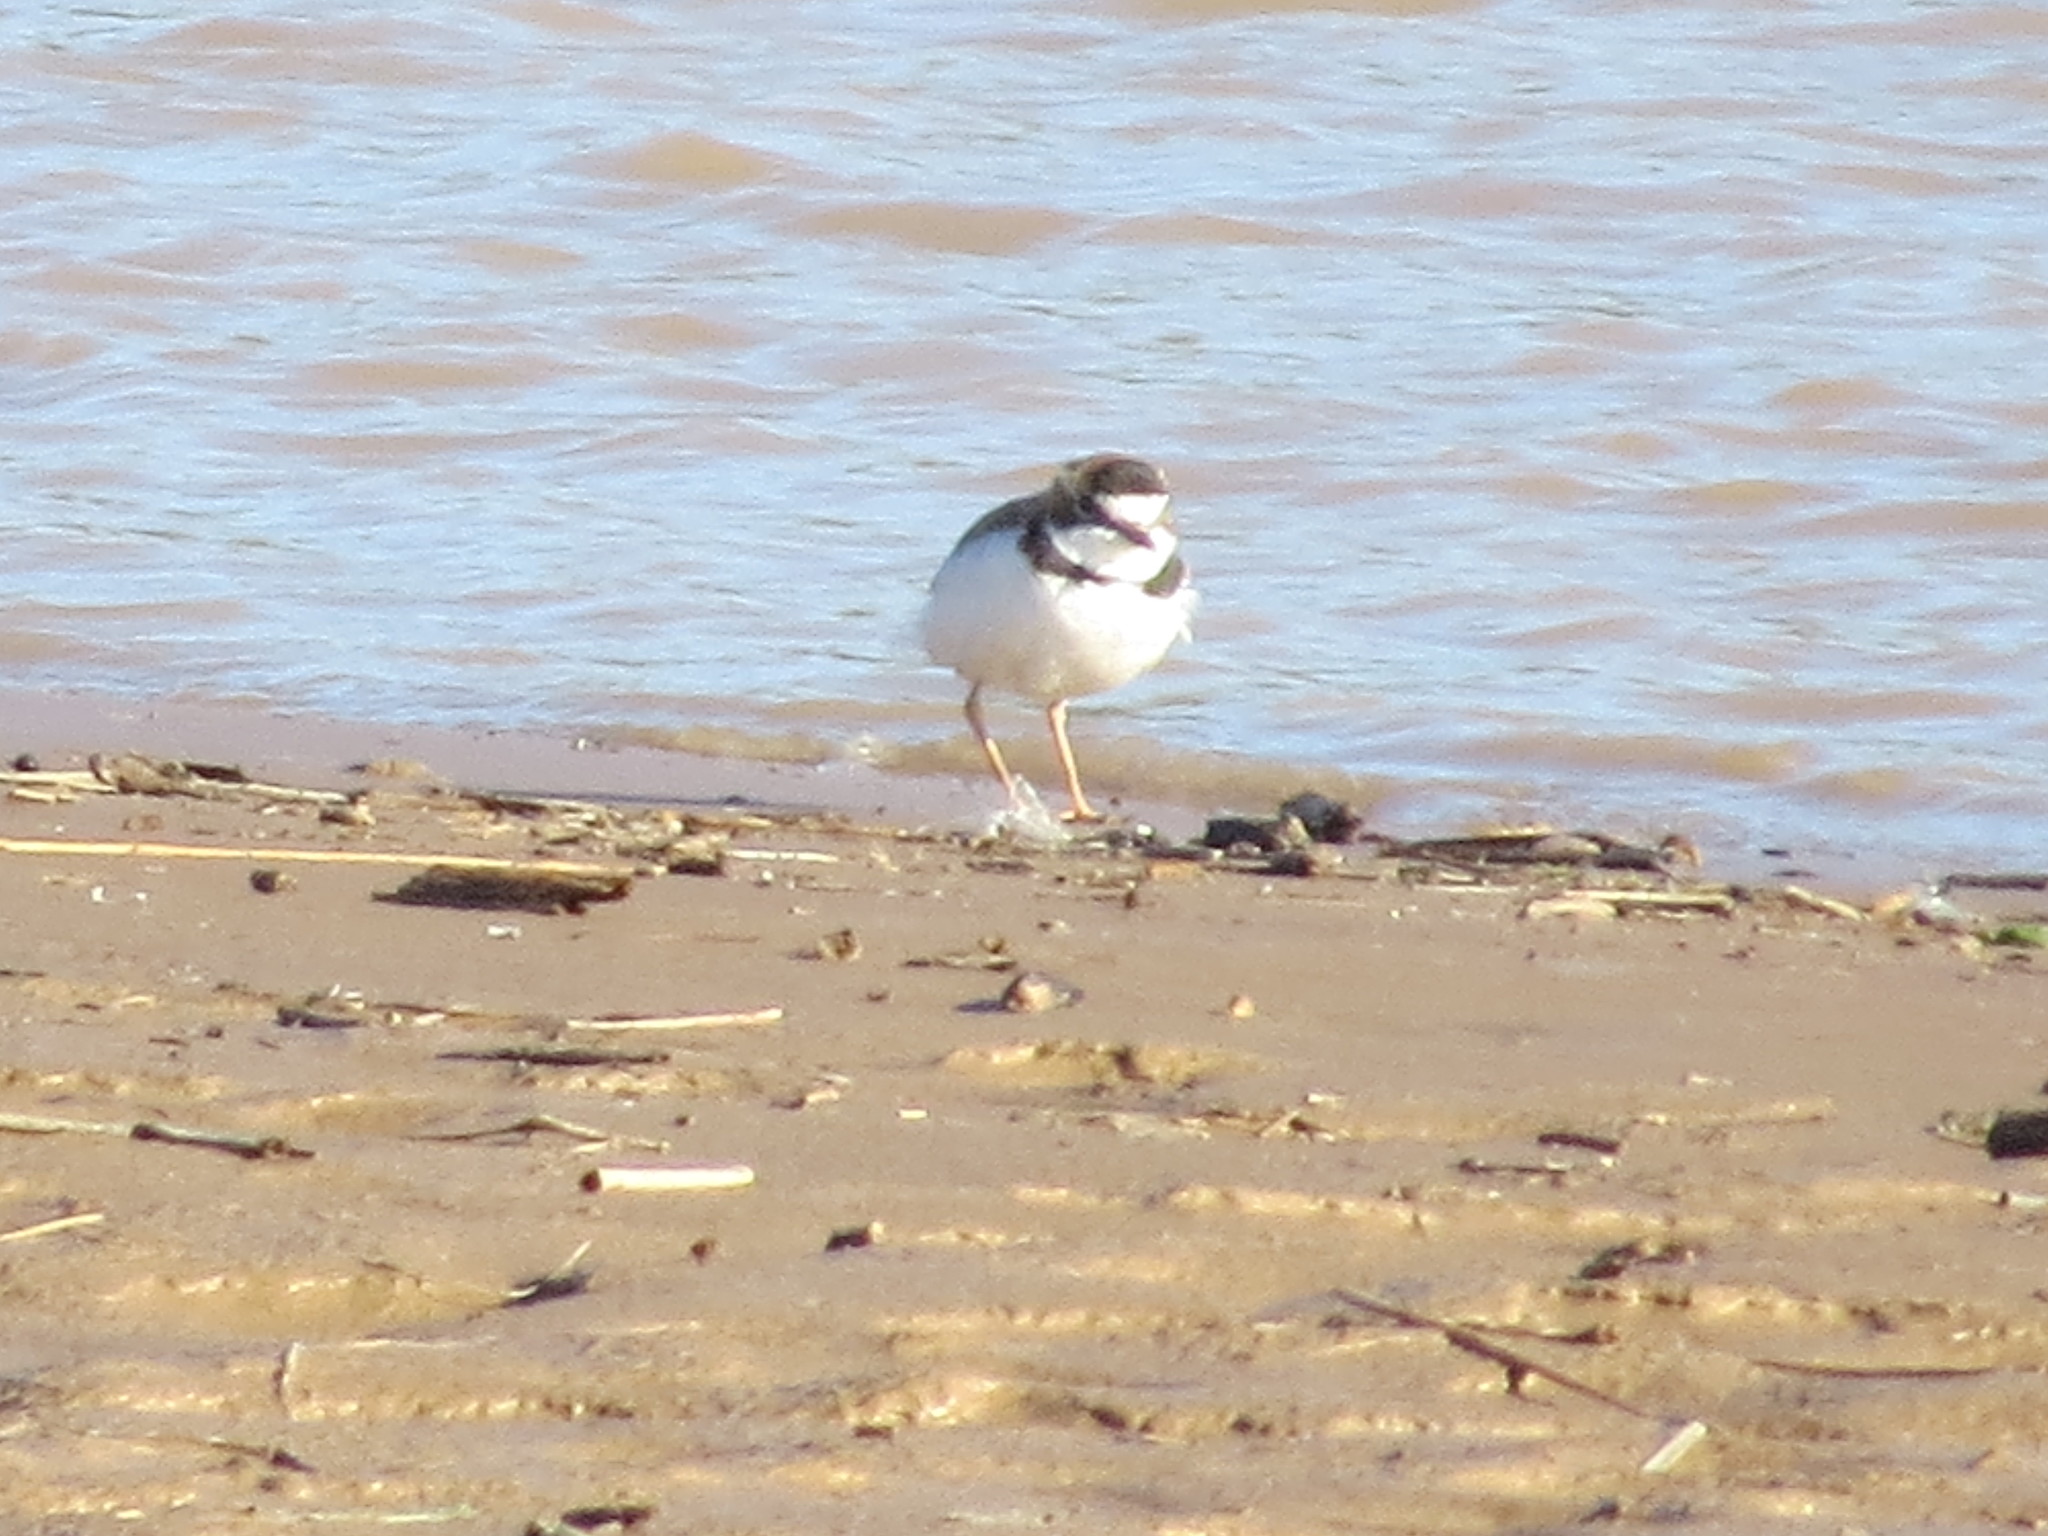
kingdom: Animalia
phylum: Chordata
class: Aves
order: Charadriiformes
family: Charadriidae
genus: Anarhynchus
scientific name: Anarhynchus
